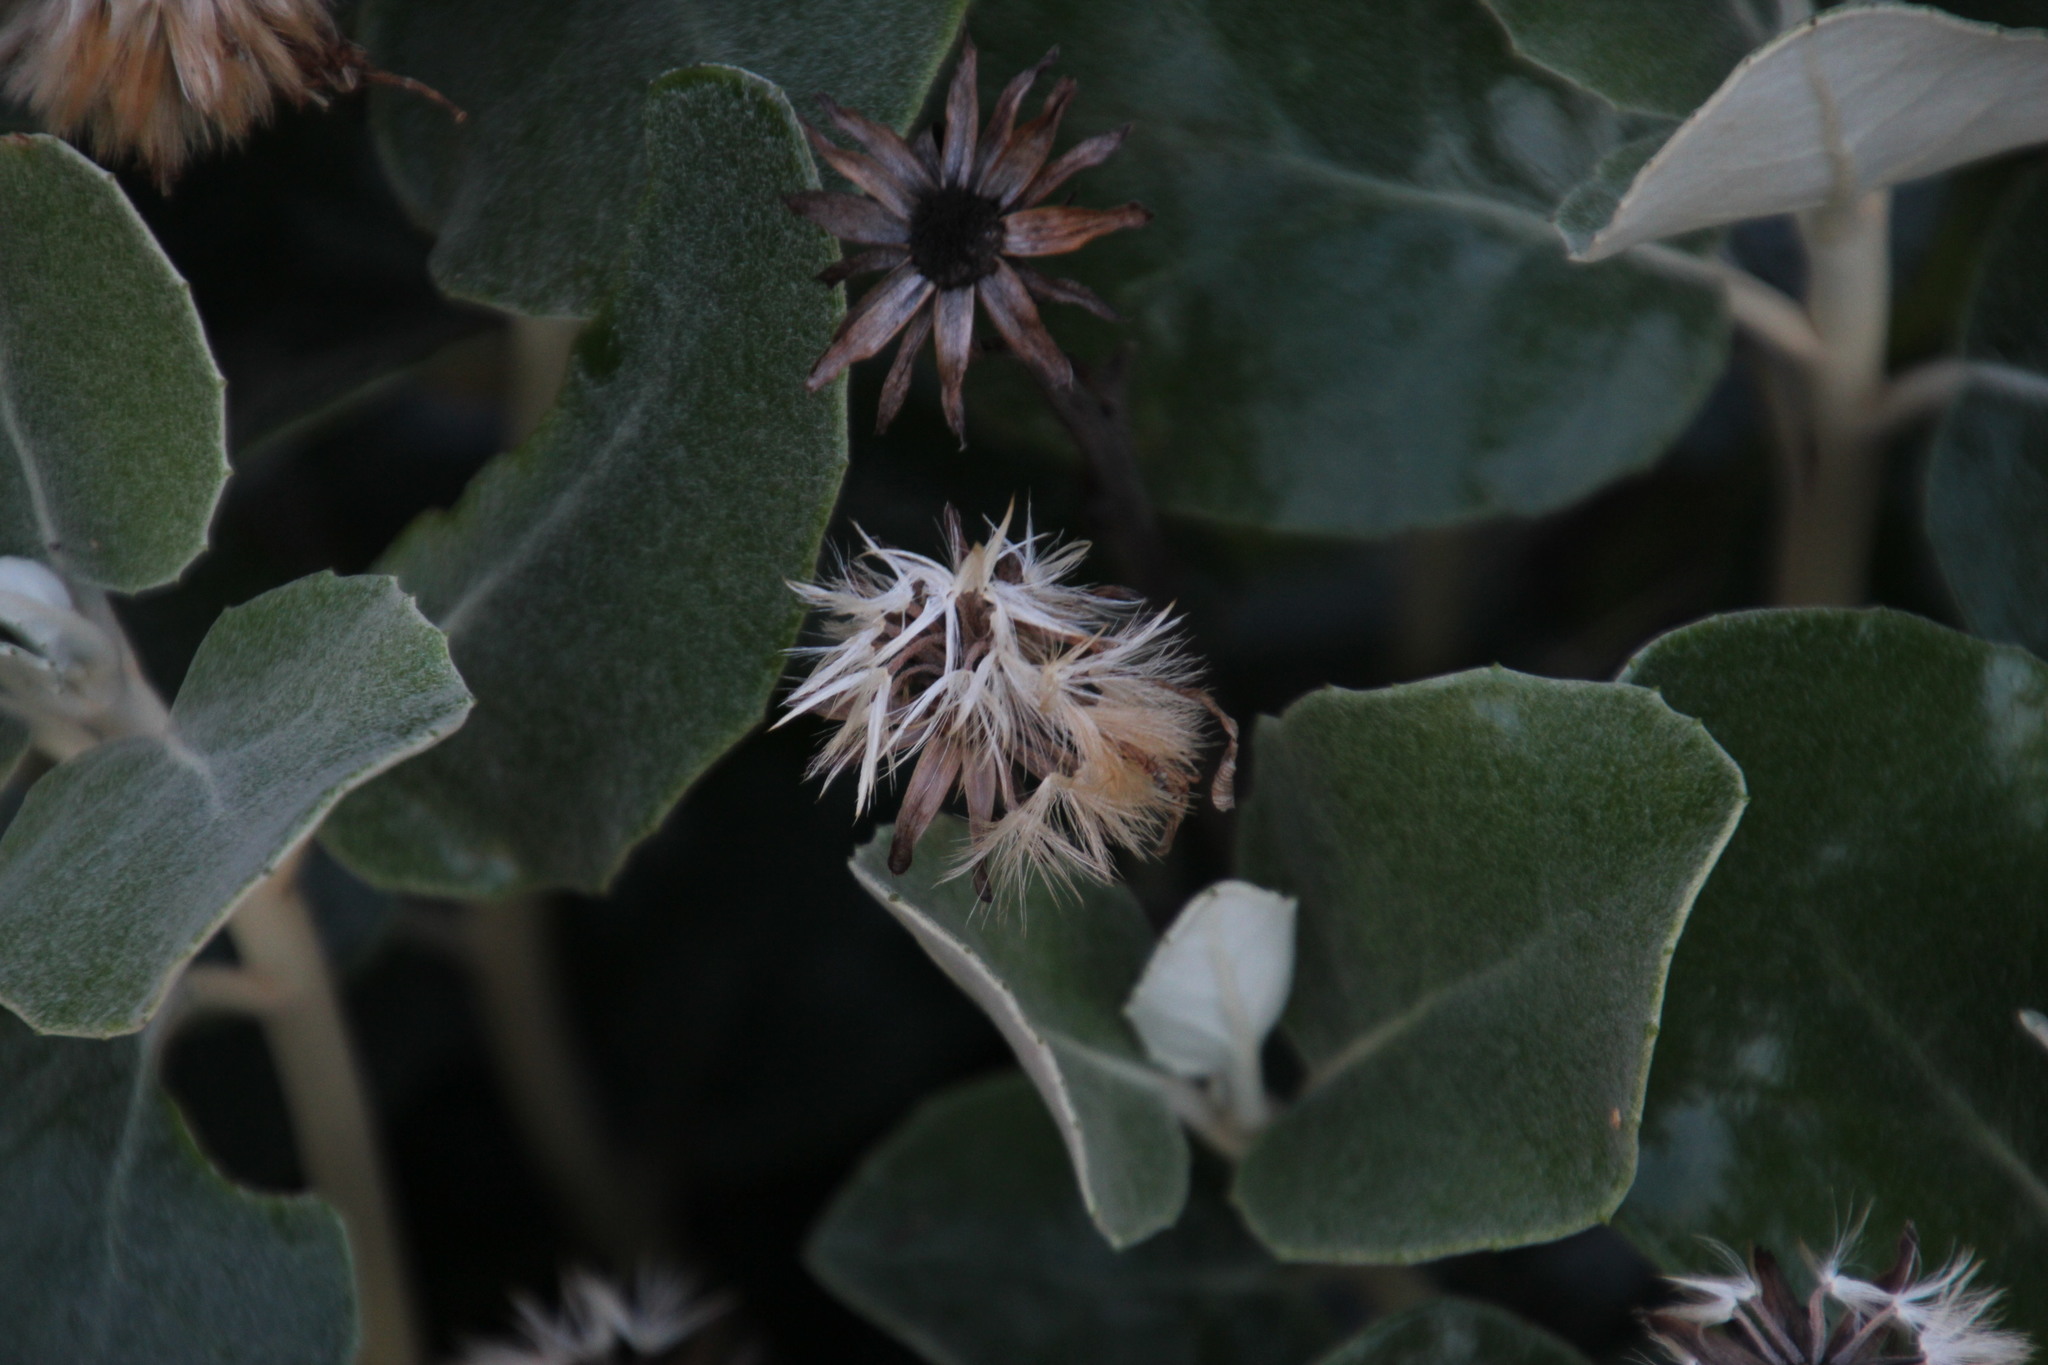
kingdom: Plantae
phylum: Tracheophyta
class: Magnoliopsida
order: Asterales
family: Asteraceae
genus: Capelio
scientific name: Capelio tabularis
